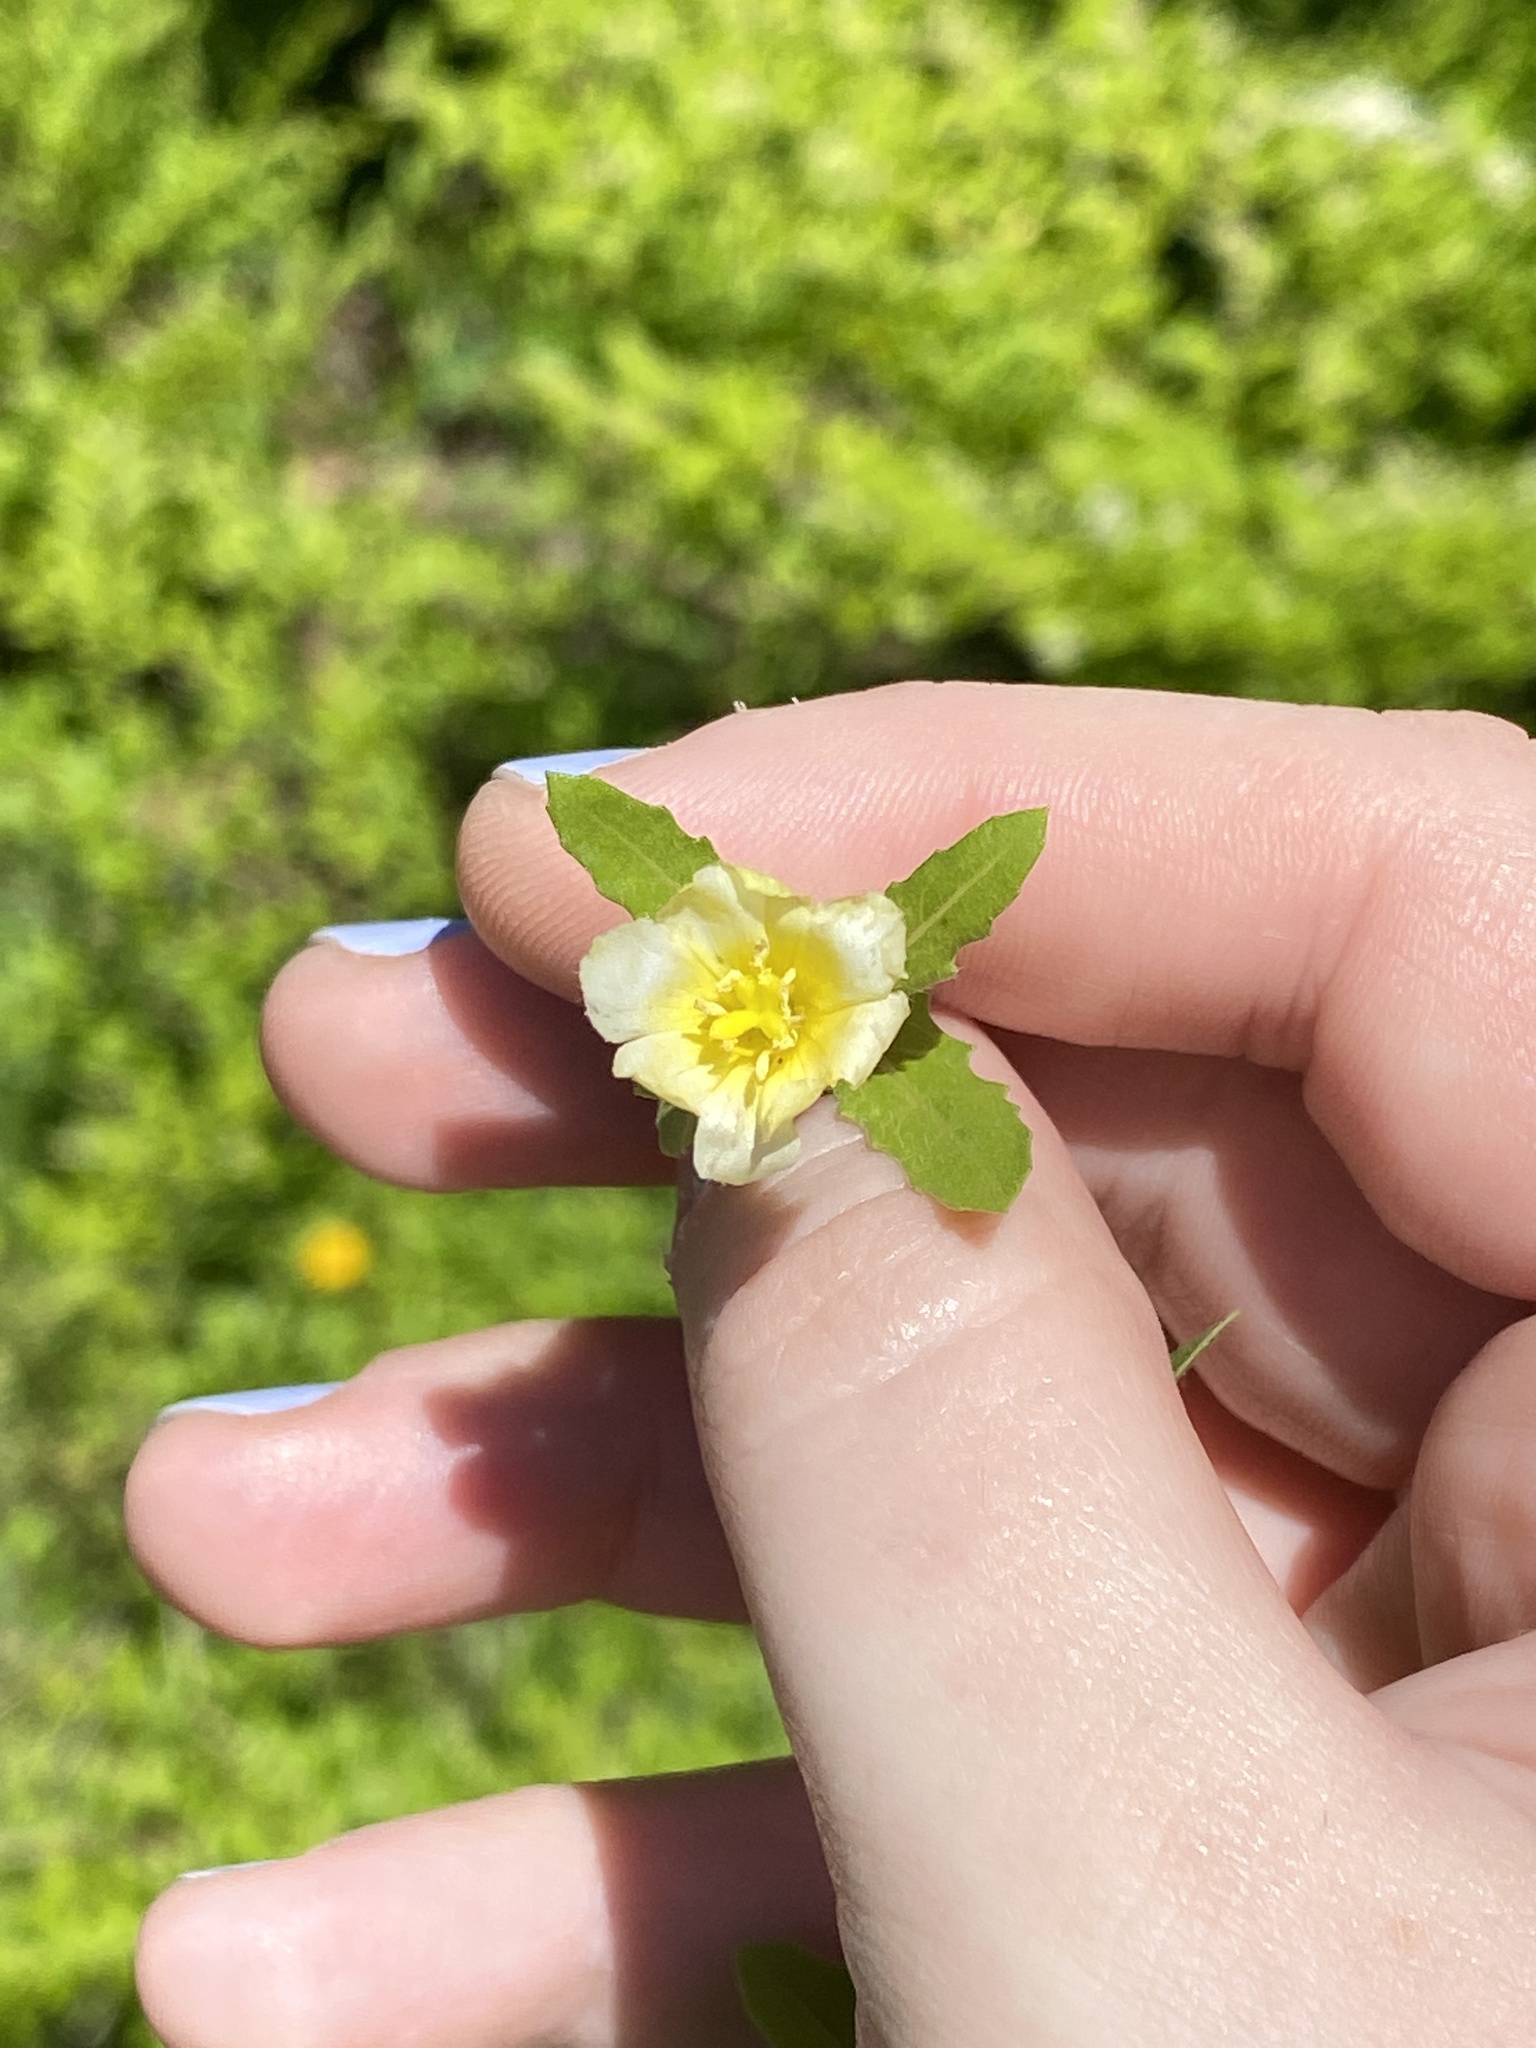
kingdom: Plantae
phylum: Tracheophyta
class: Magnoliopsida
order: Myrtales
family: Onagraceae
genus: Oenothera
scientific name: Oenothera laciniata
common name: Cut-leaved evening-primrose
